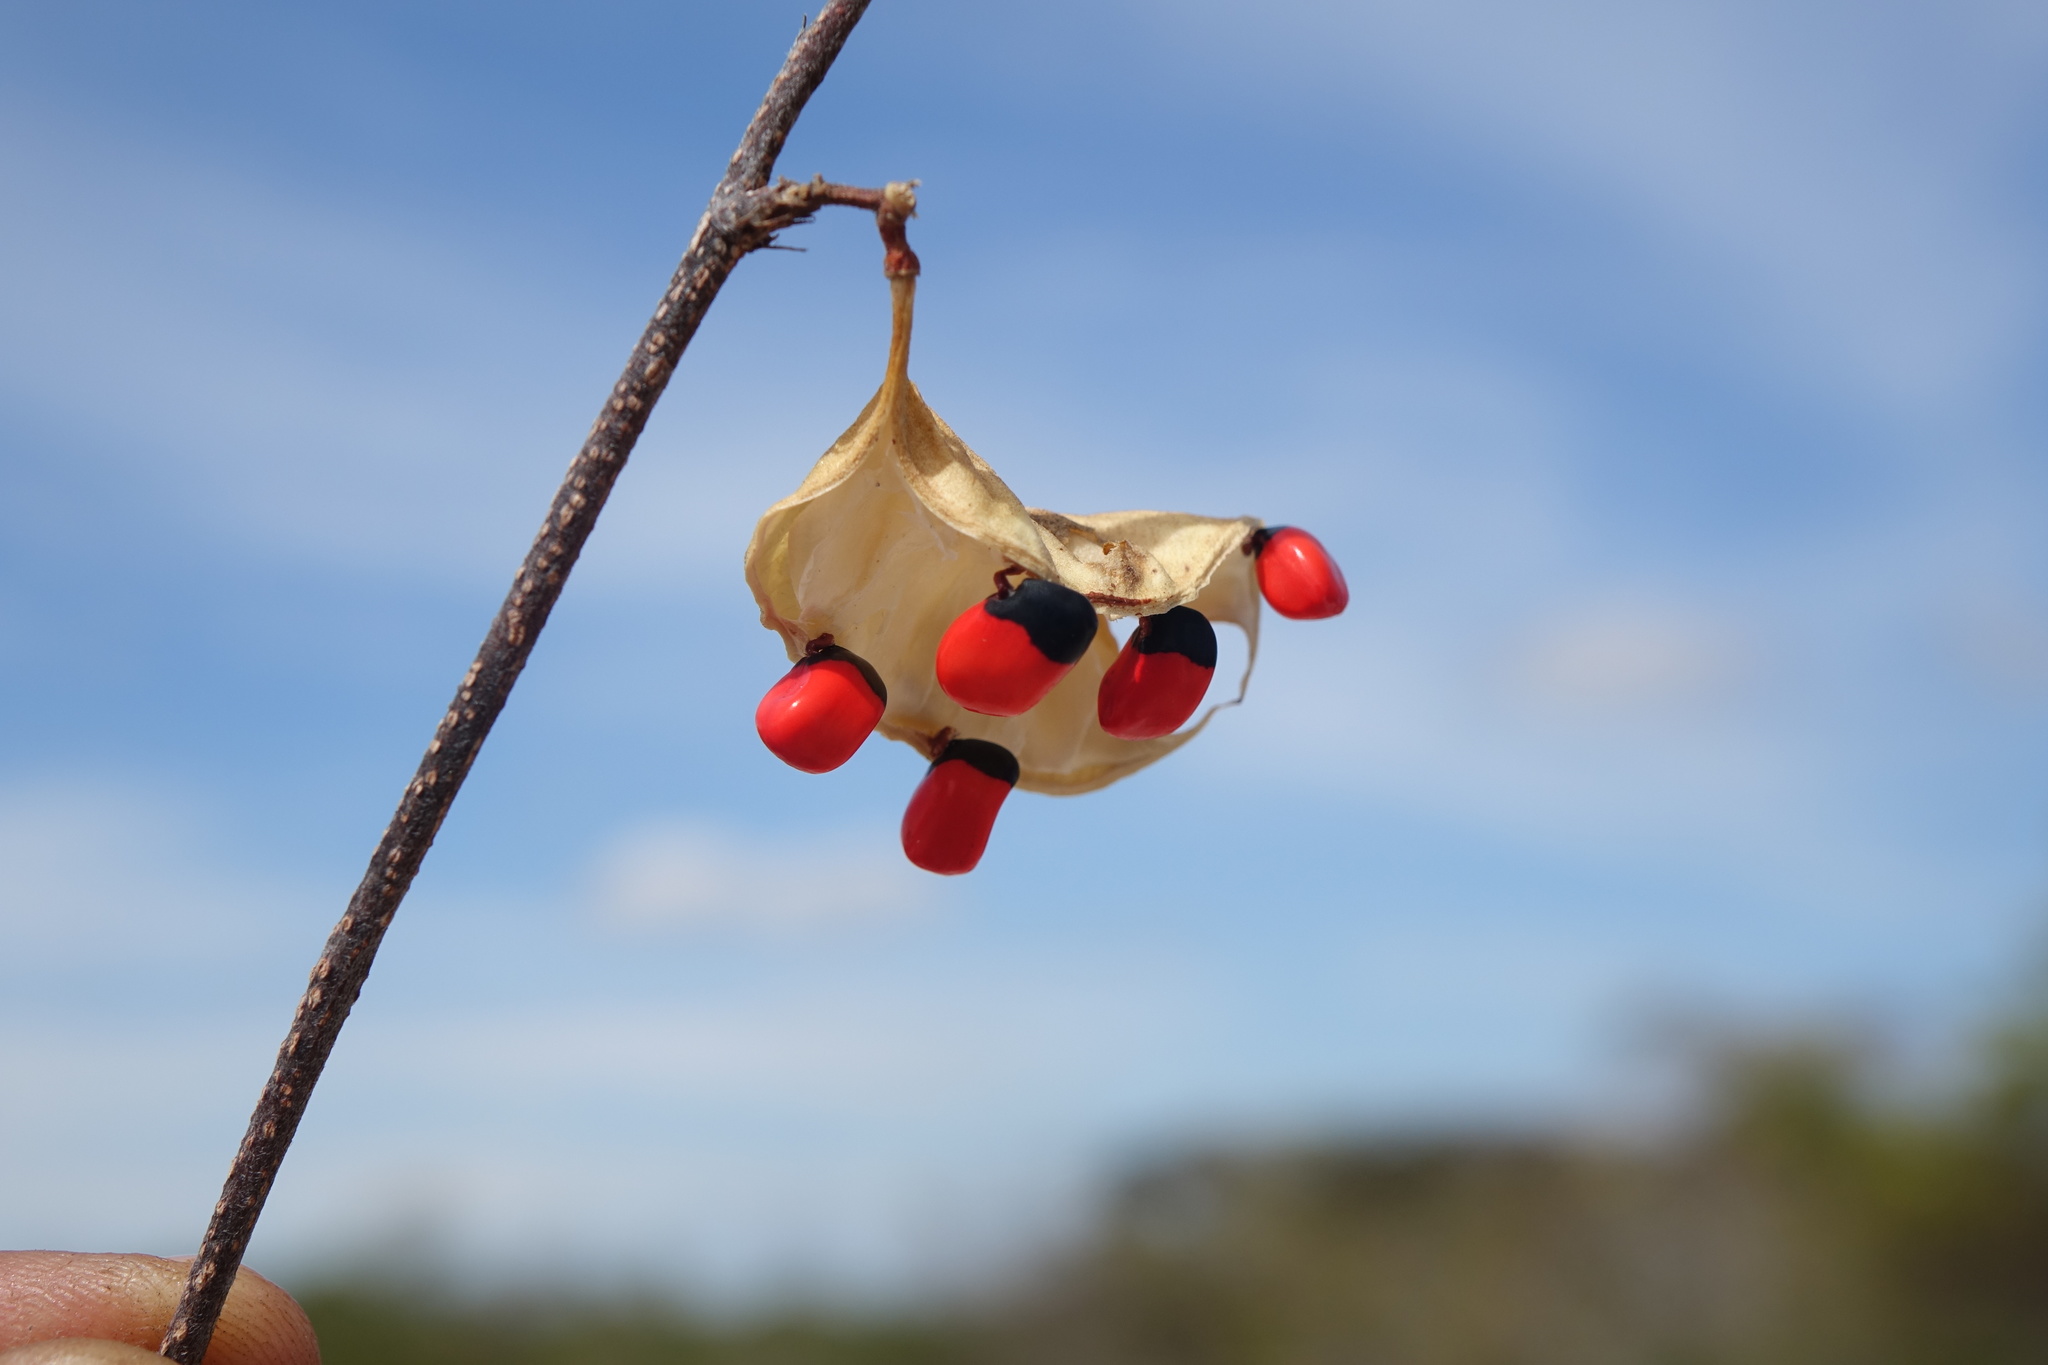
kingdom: Plantae
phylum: Tracheophyta
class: Magnoliopsida
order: Fabales
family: Fabaceae
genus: Abrus
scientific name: Abrus aureus
